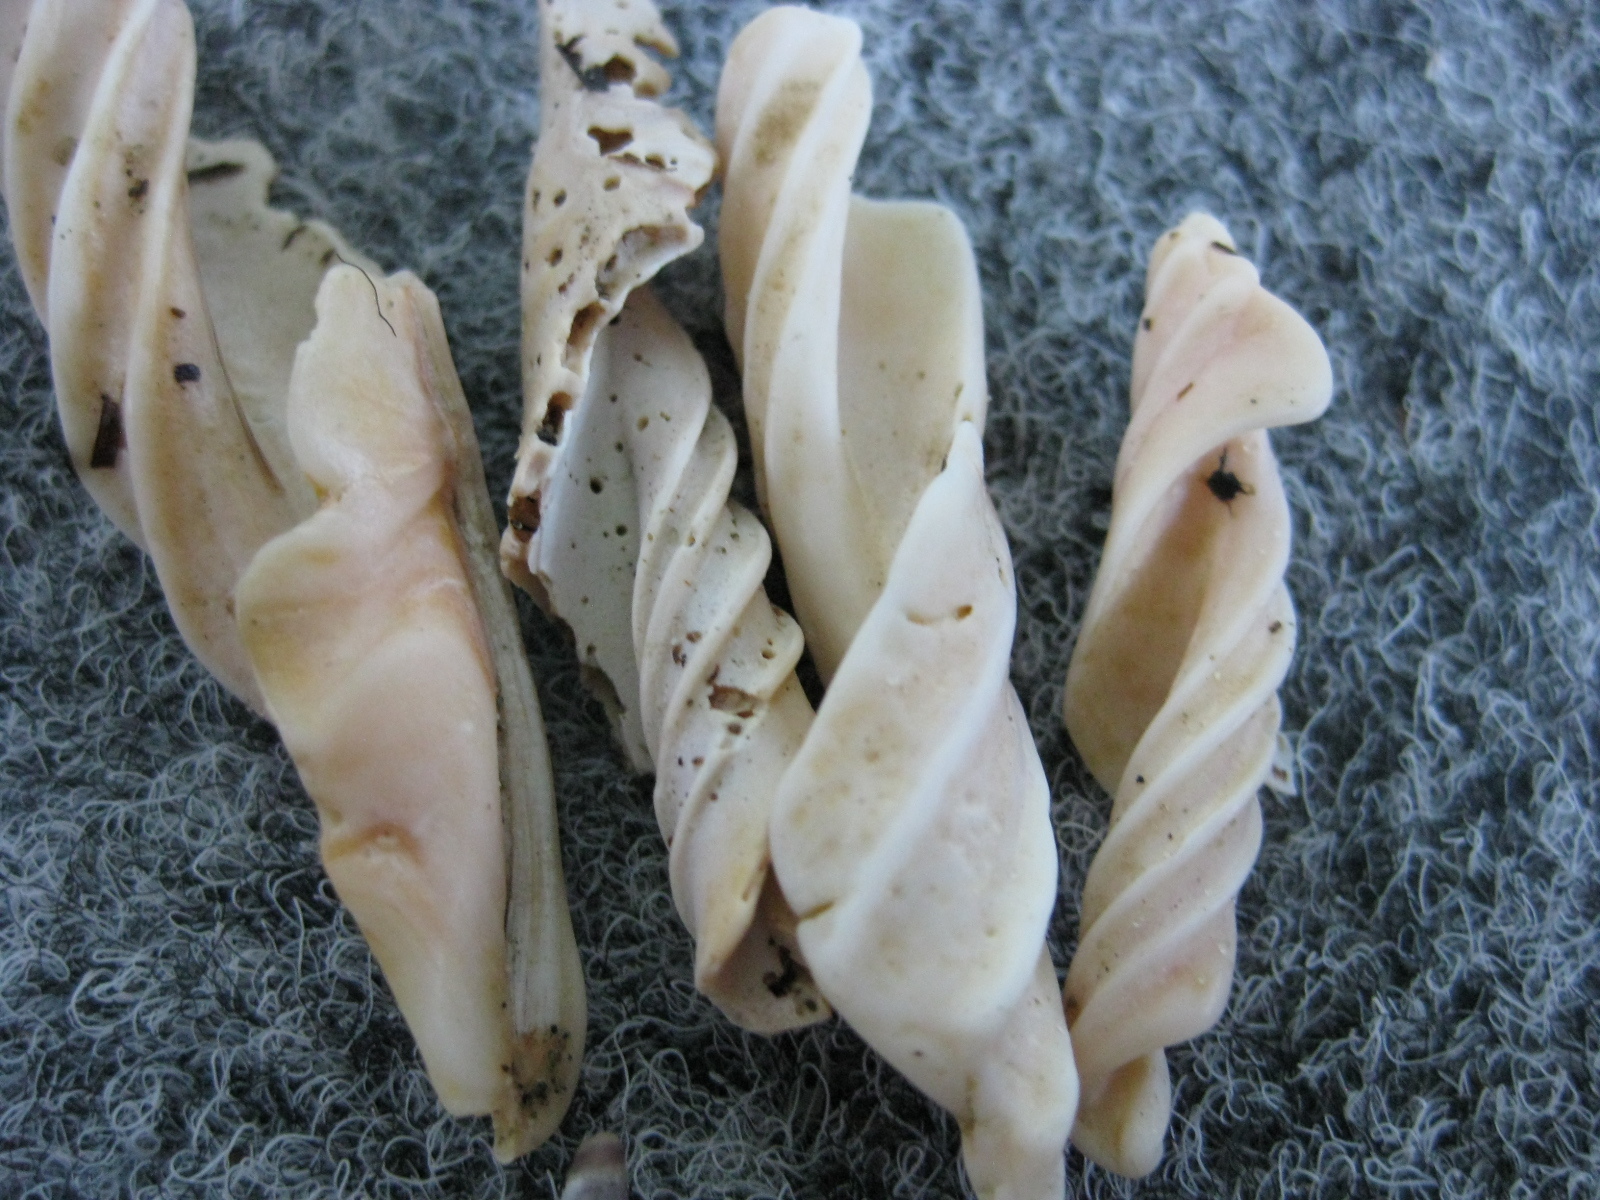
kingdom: Animalia
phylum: Mollusca
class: Gastropoda
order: Neogastropoda
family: Volutidae
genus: Alcithoe
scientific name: Alcithoe arabica
